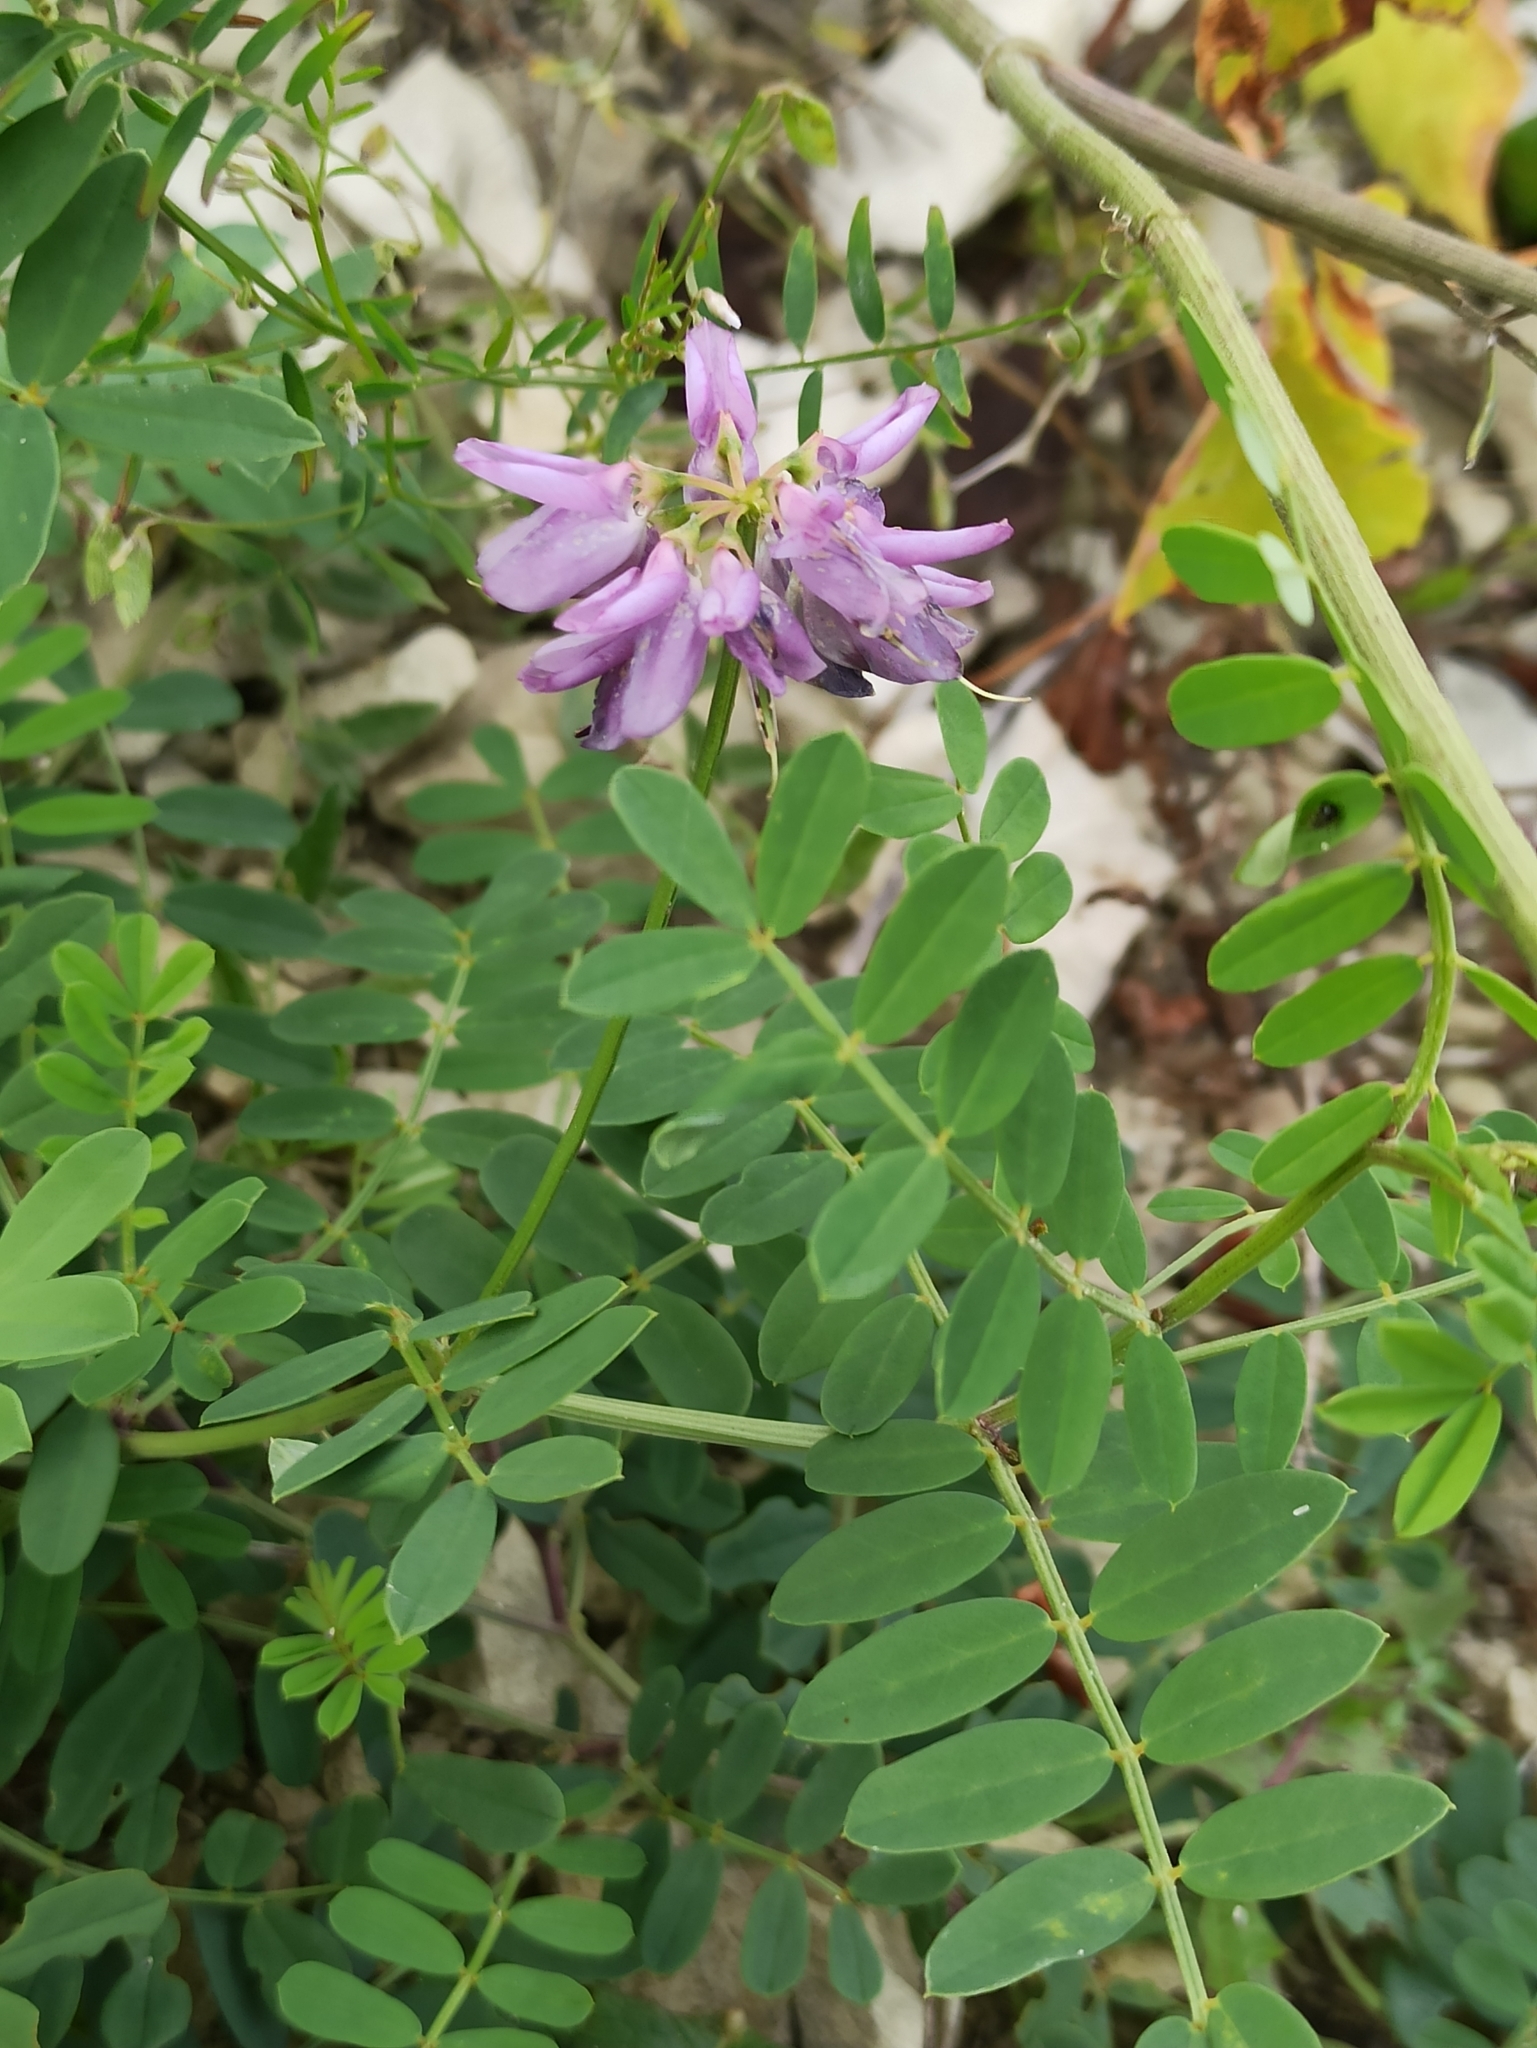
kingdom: Plantae
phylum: Tracheophyta
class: Magnoliopsida
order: Fabales
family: Fabaceae
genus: Coronilla
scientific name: Coronilla varia
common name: Crownvetch
